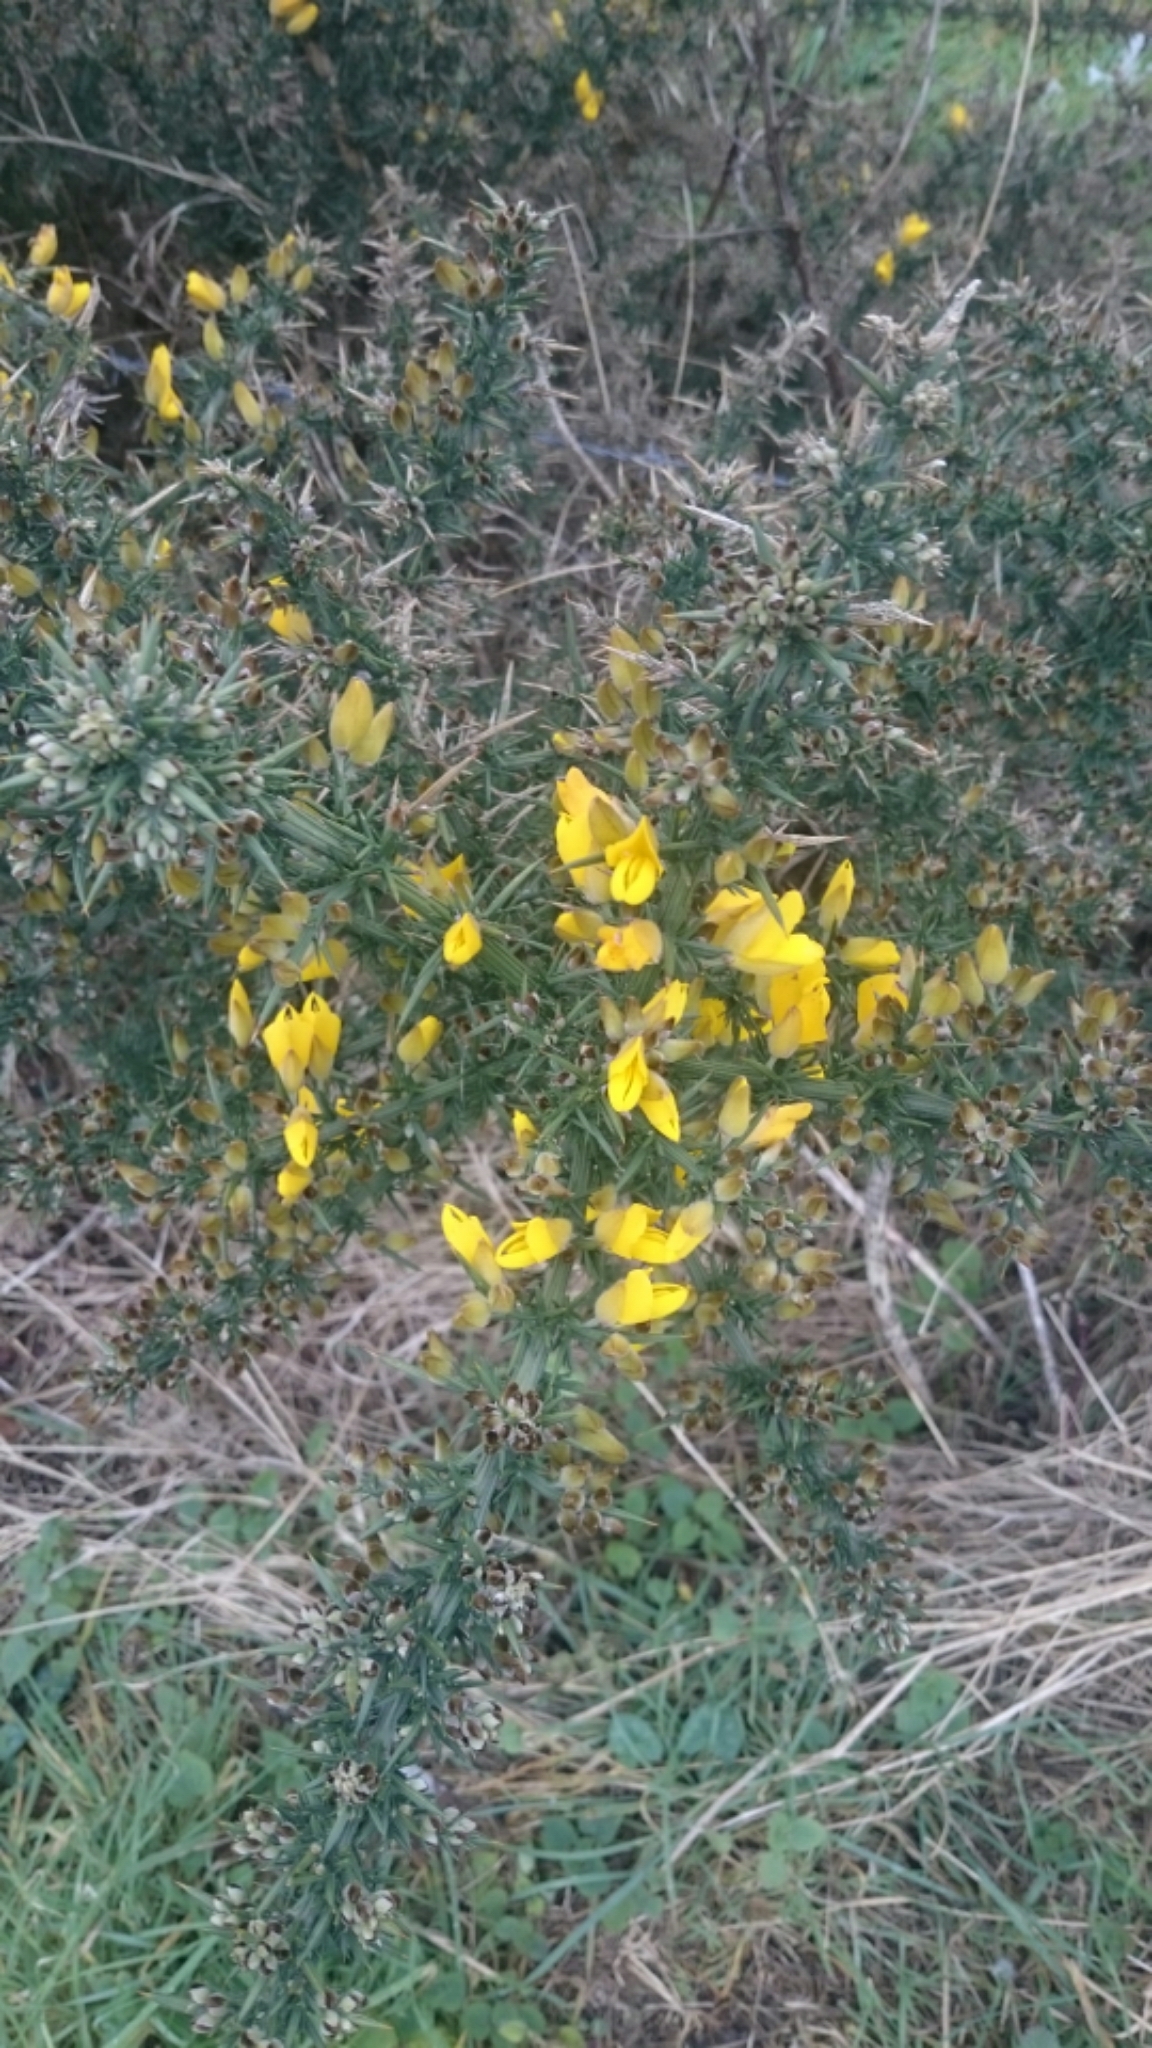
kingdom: Plantae
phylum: Tracheophyta
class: Magnoliopsida
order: Fabales
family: Fabaceae
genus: Ulex
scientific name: Ulex europaeus
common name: Common gorse
